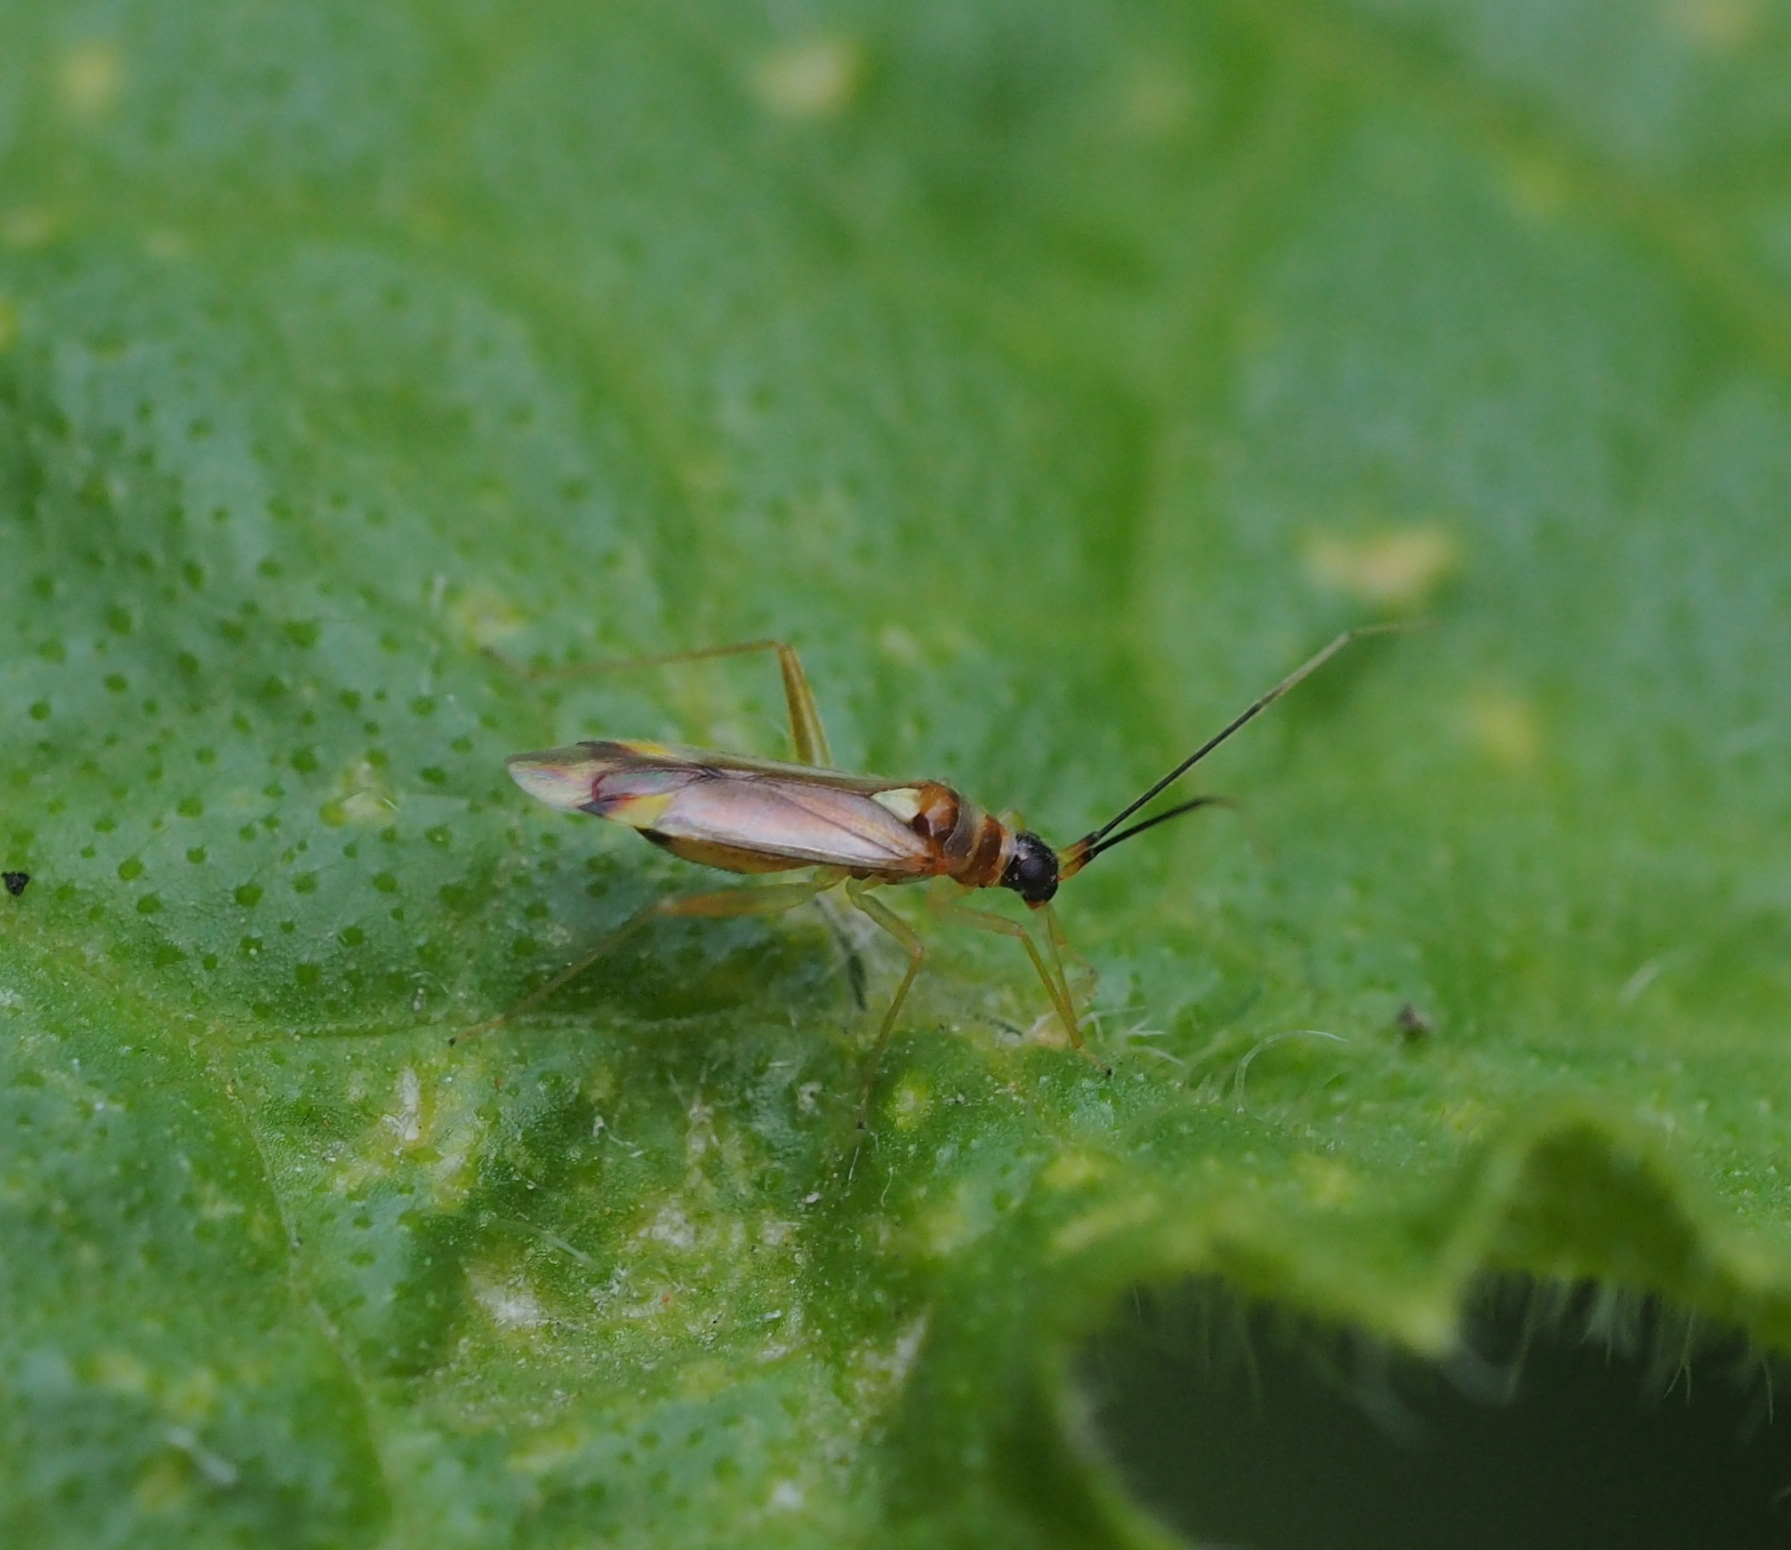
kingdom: Animalia
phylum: Arthropoda
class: Insecta
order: Hemiptera
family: Miridae
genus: Campyloneura
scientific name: Campyloneura virgula
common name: Predatory bug
